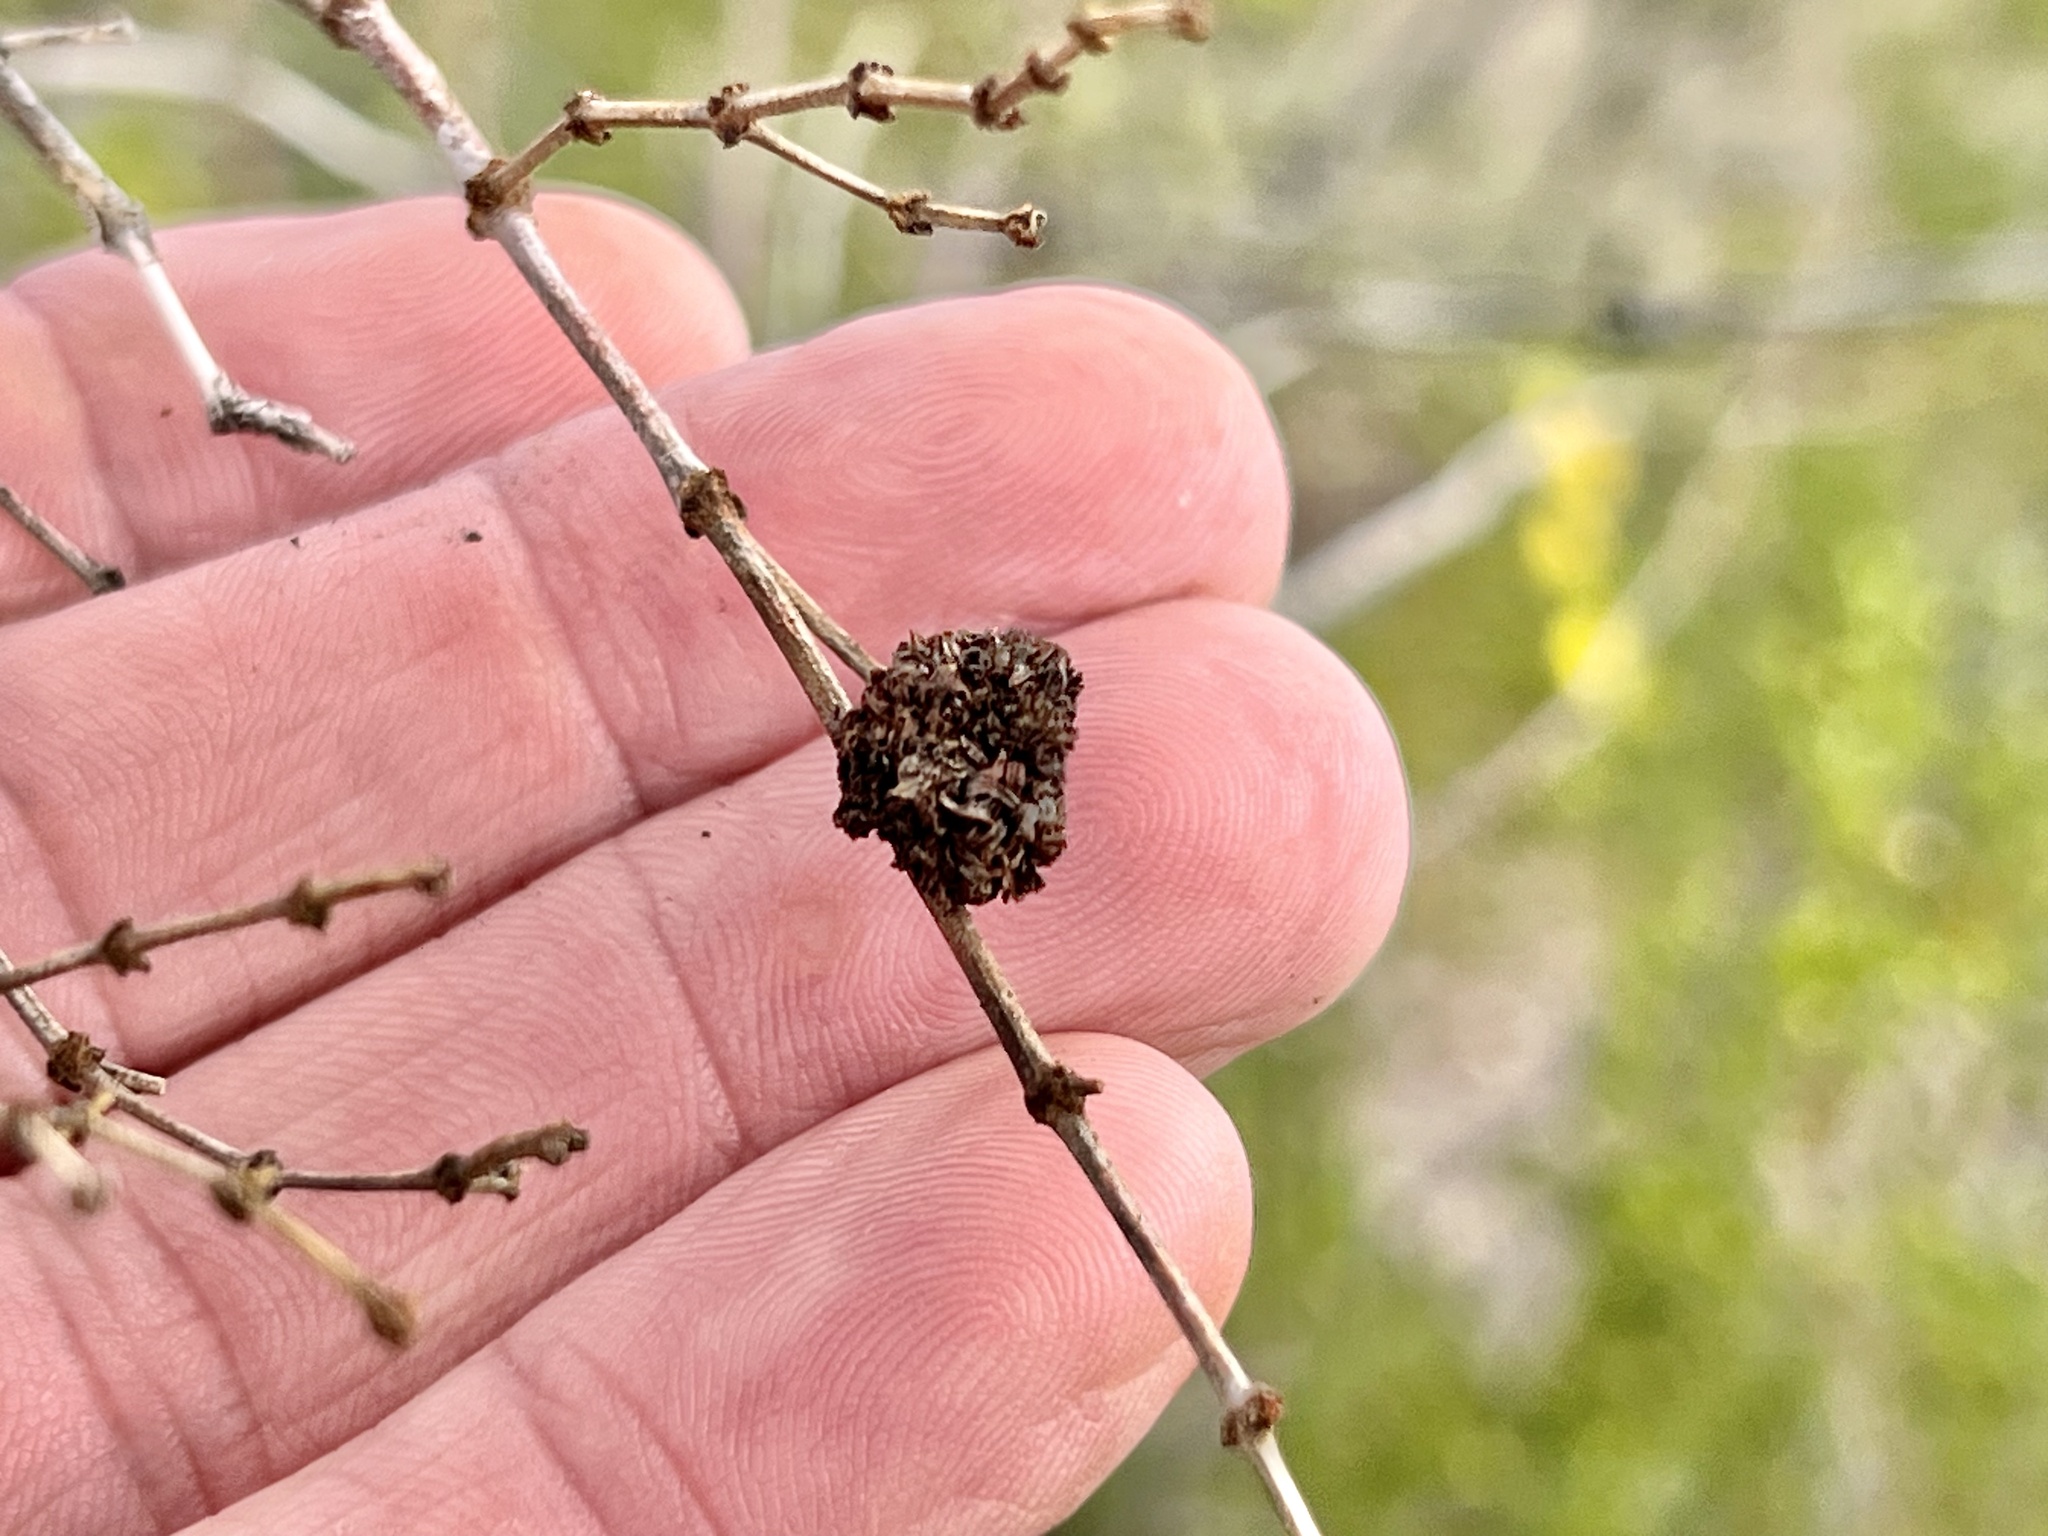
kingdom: Animalia
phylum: Arthropoda
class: Insecta
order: Diptera
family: Cecidomyiidae
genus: Asphondylia
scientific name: Asphondylia auripila
